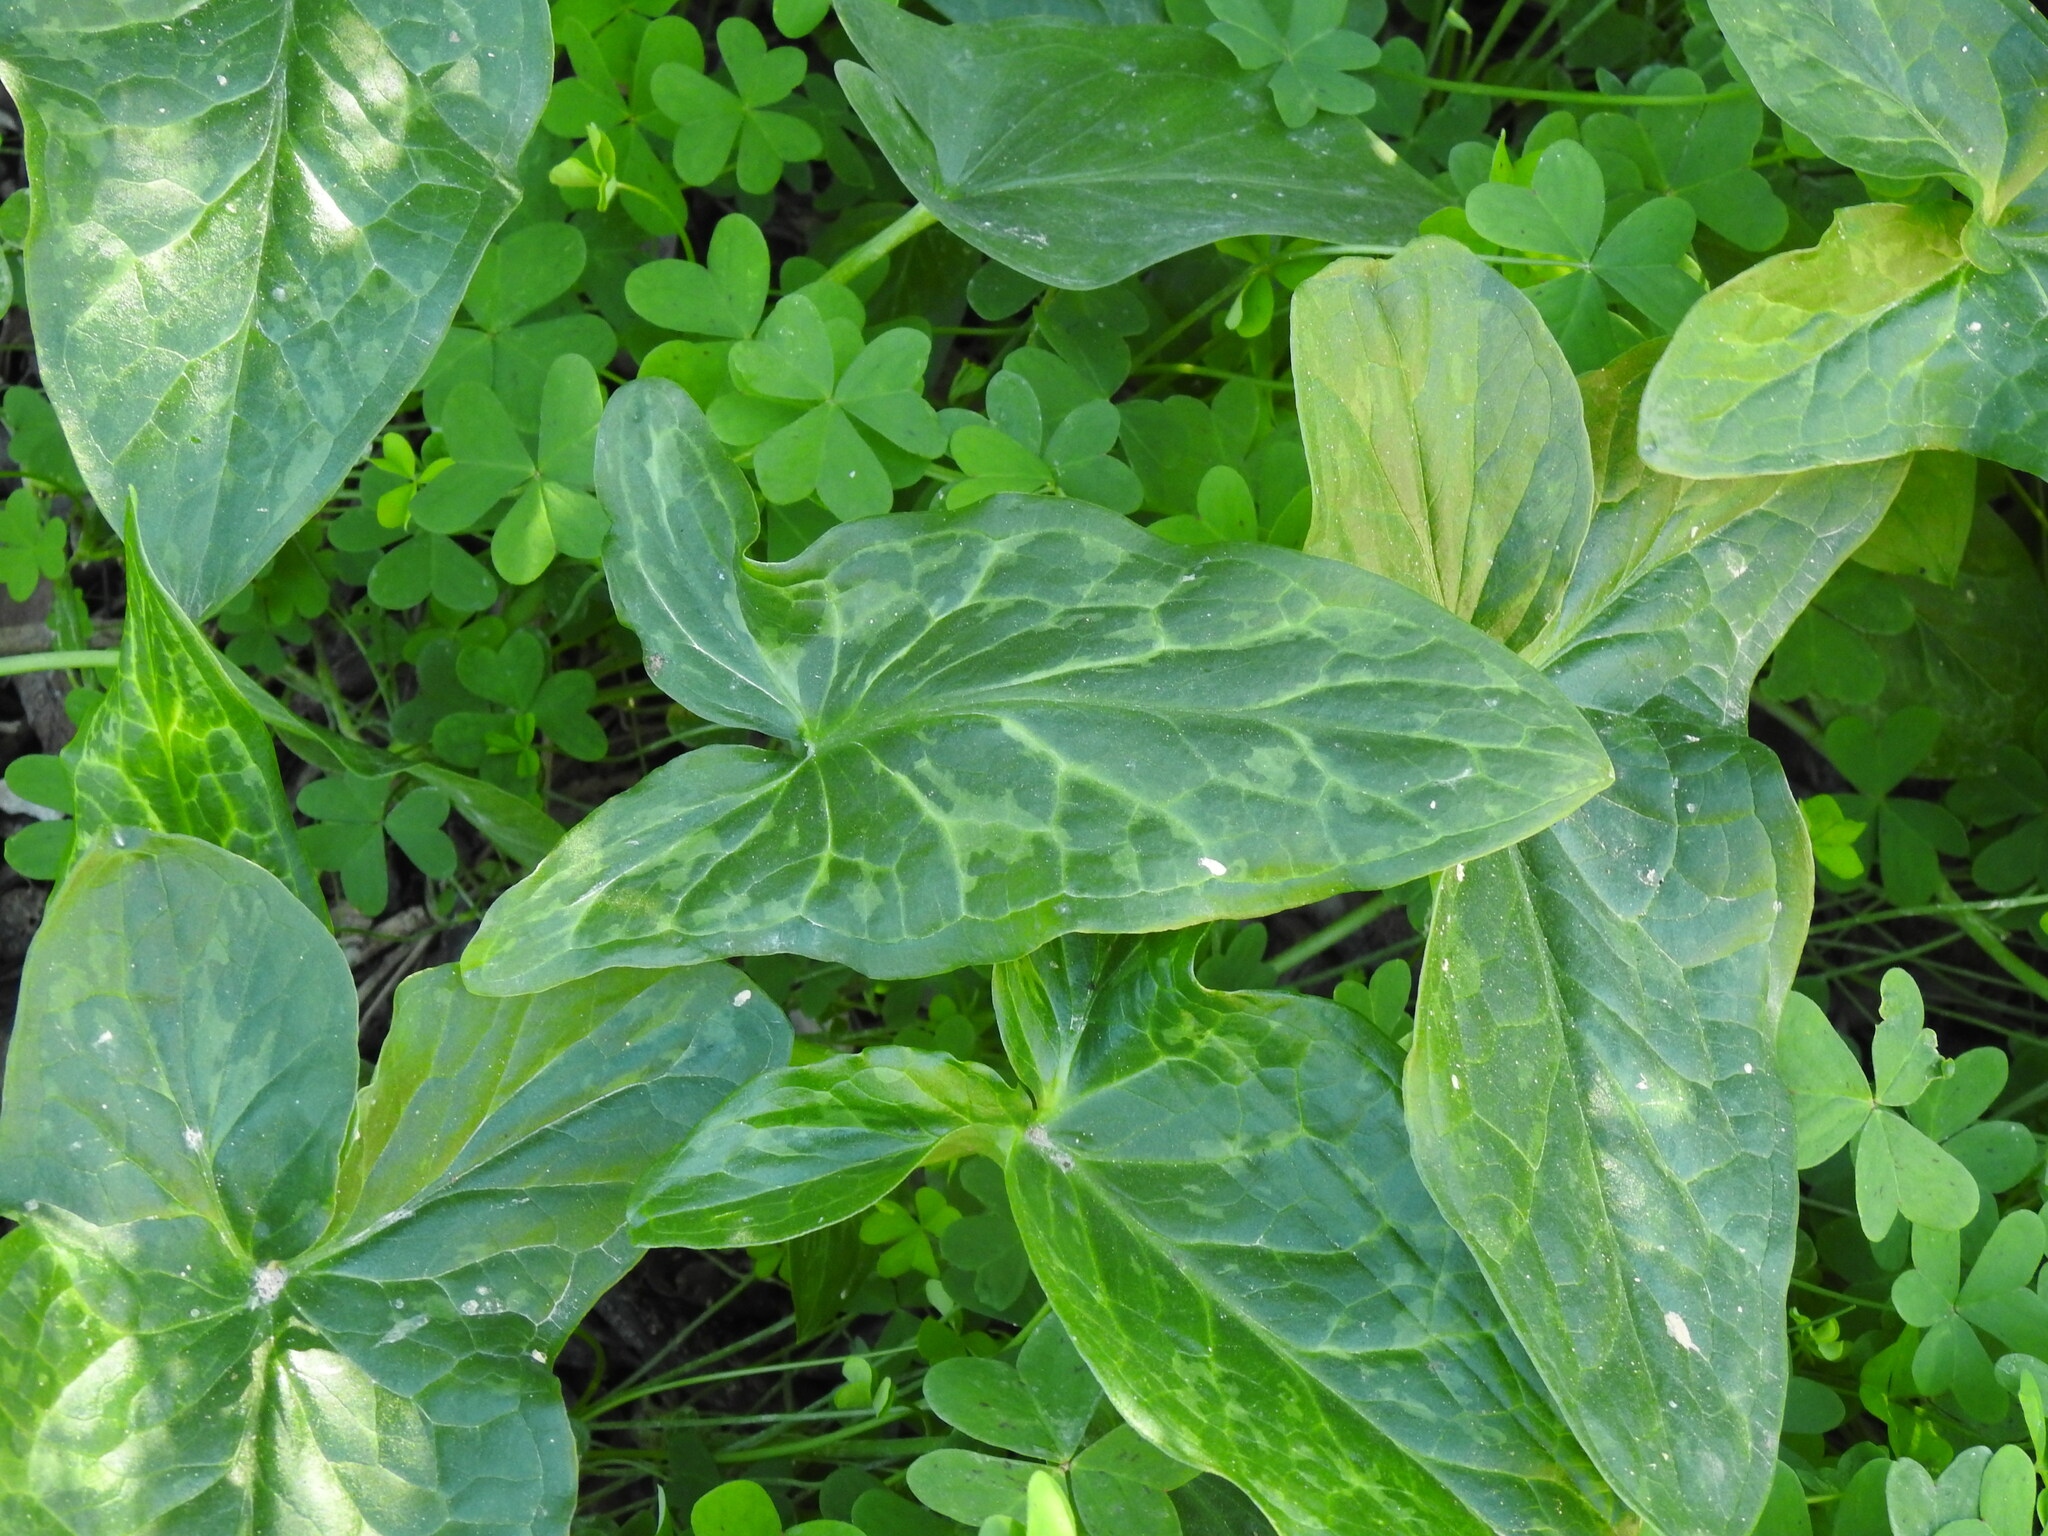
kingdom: Plantae
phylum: Tracheophyta
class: Liliopsida
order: Alismatales
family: Araceae
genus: Arum
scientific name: Arum italicum
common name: Italian lords-and-ladies
